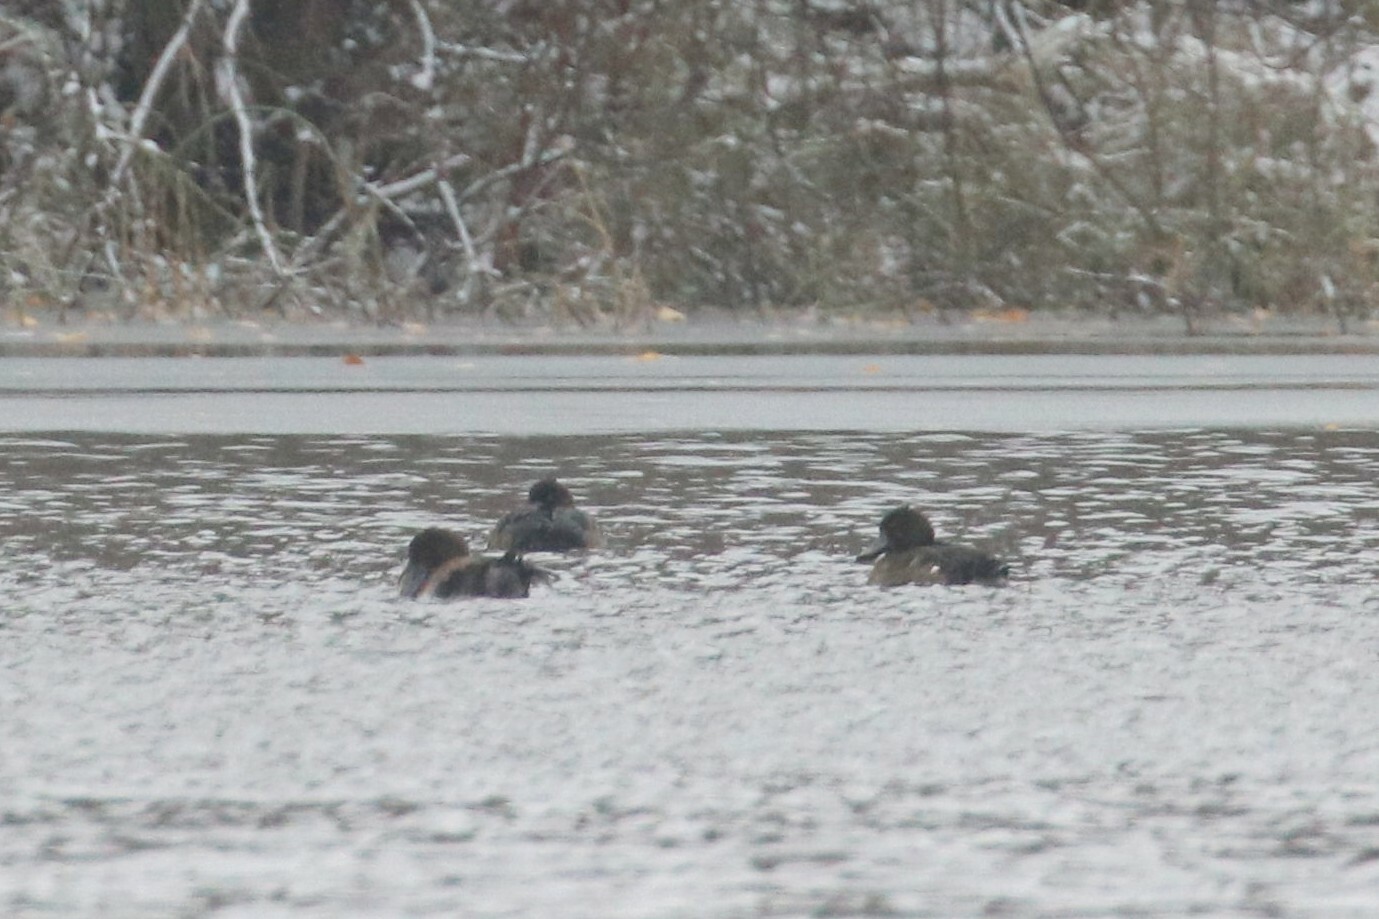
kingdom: Animalia
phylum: Chordata
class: Aves
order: Anseriformes
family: Anatidae
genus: Aythya
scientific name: Aythya fuligula
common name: Tufted duck
